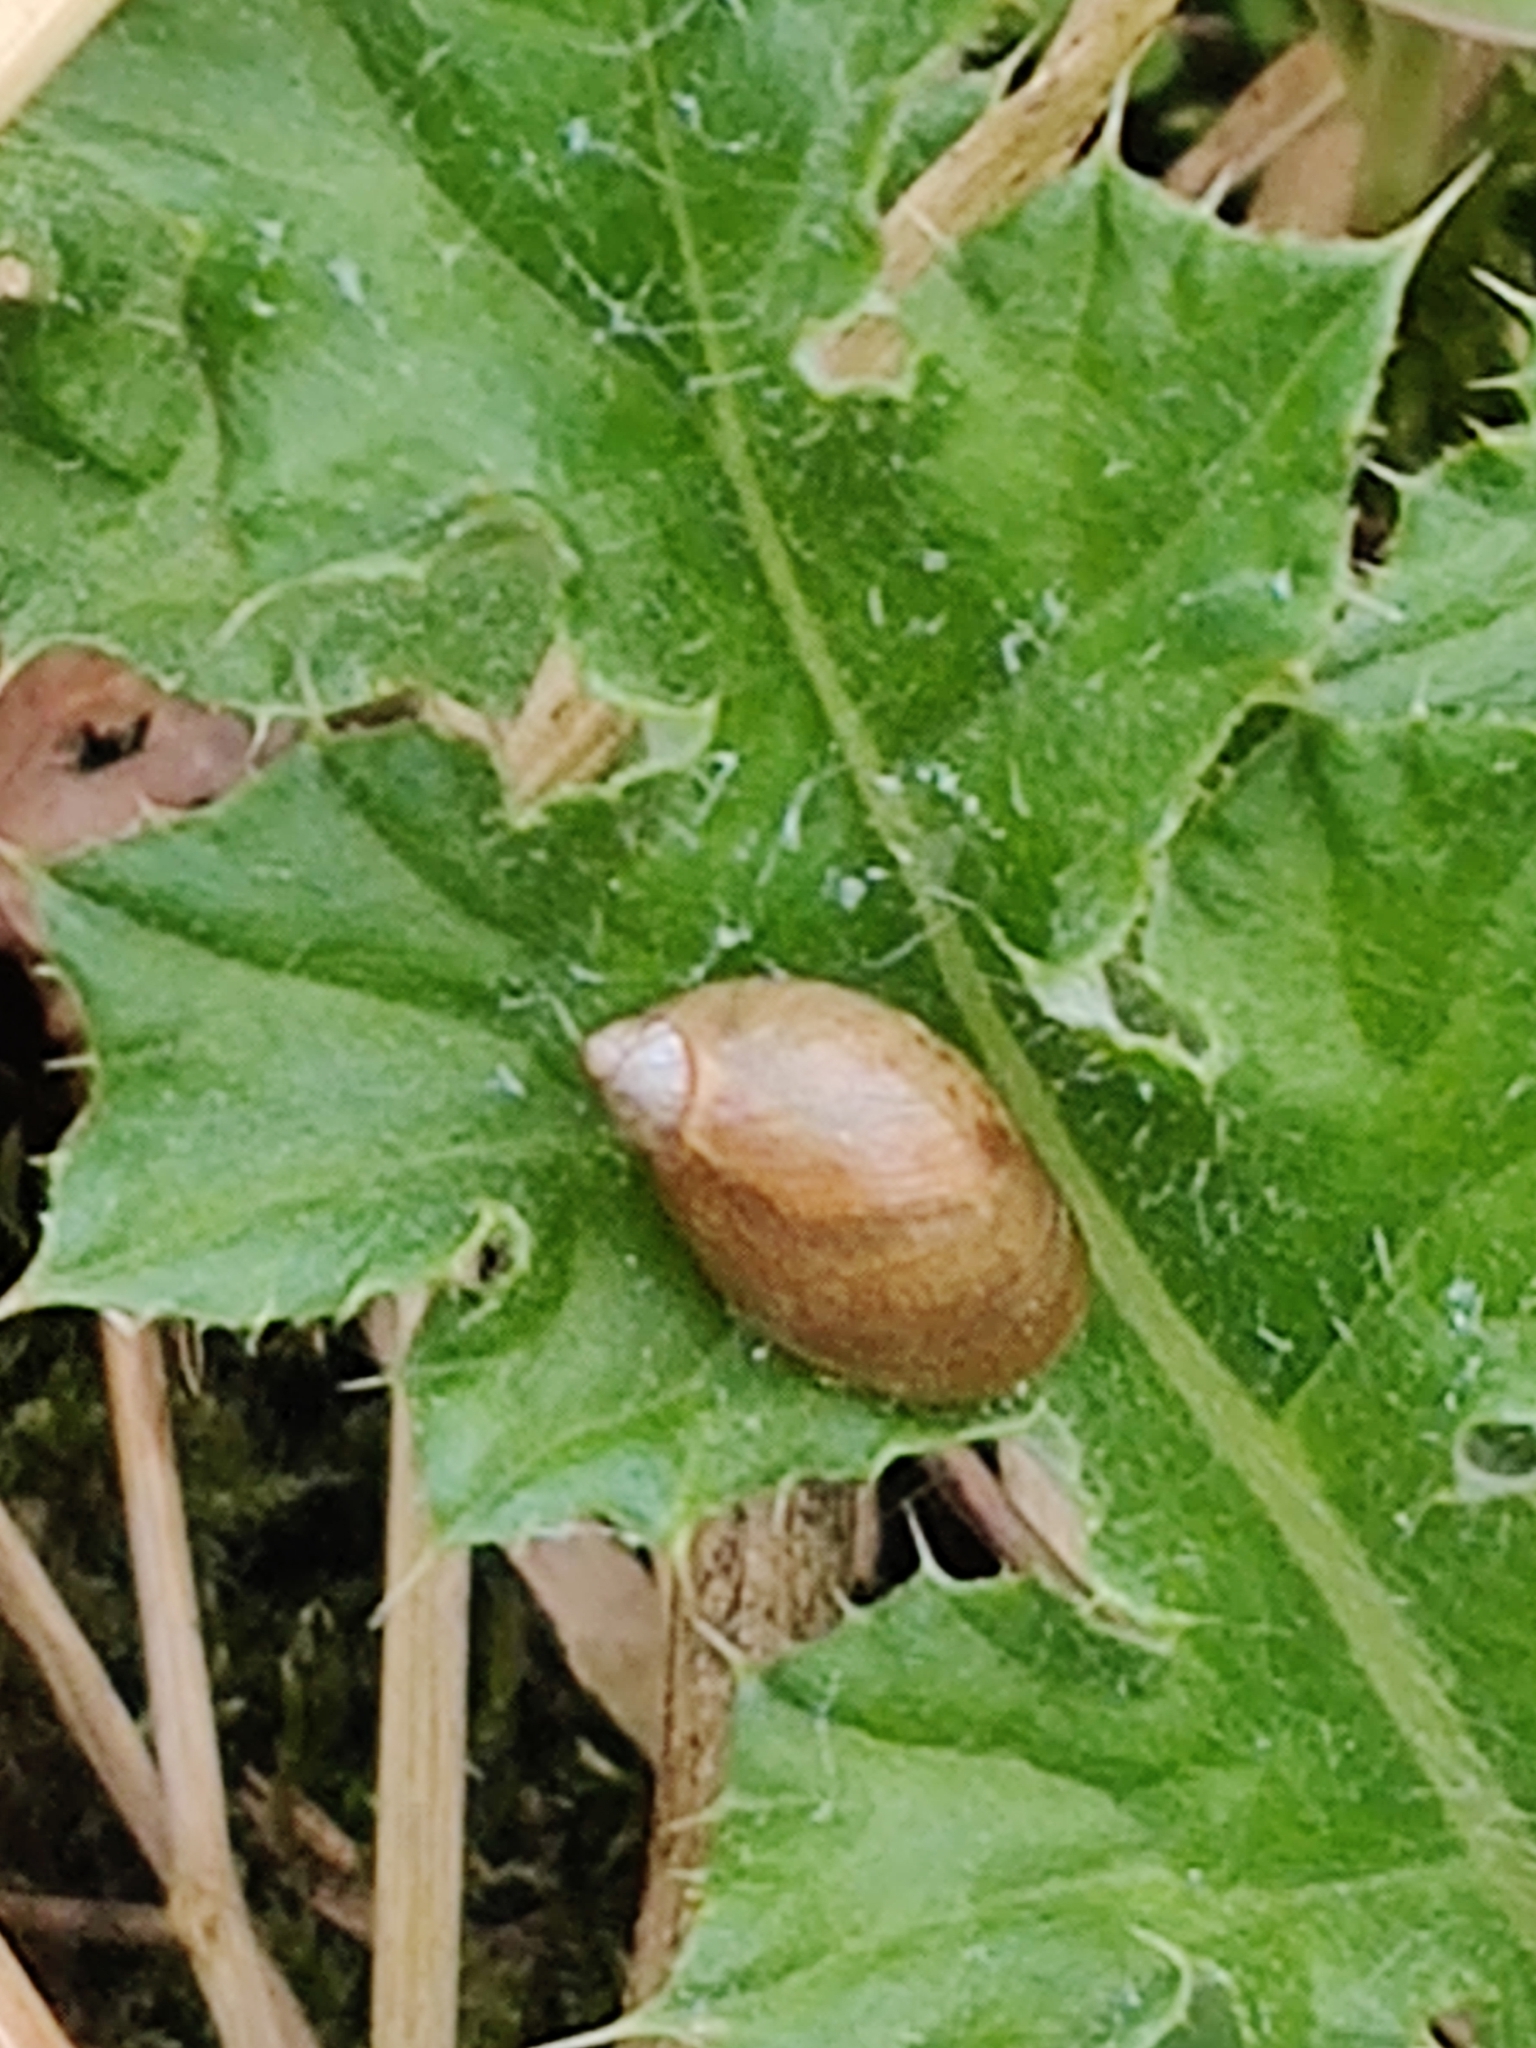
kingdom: Animalia
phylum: Mollusca
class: Gastropoda
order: Stylommatophora
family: Succineidae
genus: Succinea
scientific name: Succinea putris
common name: European ambersnail
